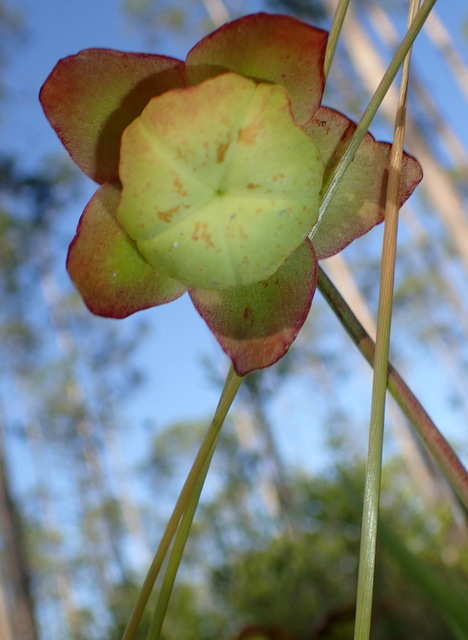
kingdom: Plantae
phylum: Tracheophyta
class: Magnoliopsida
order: Ericales
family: Sarraceniaceae
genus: Sarracenia
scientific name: Sarracenia psittacina
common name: Parrot pitcherplant
